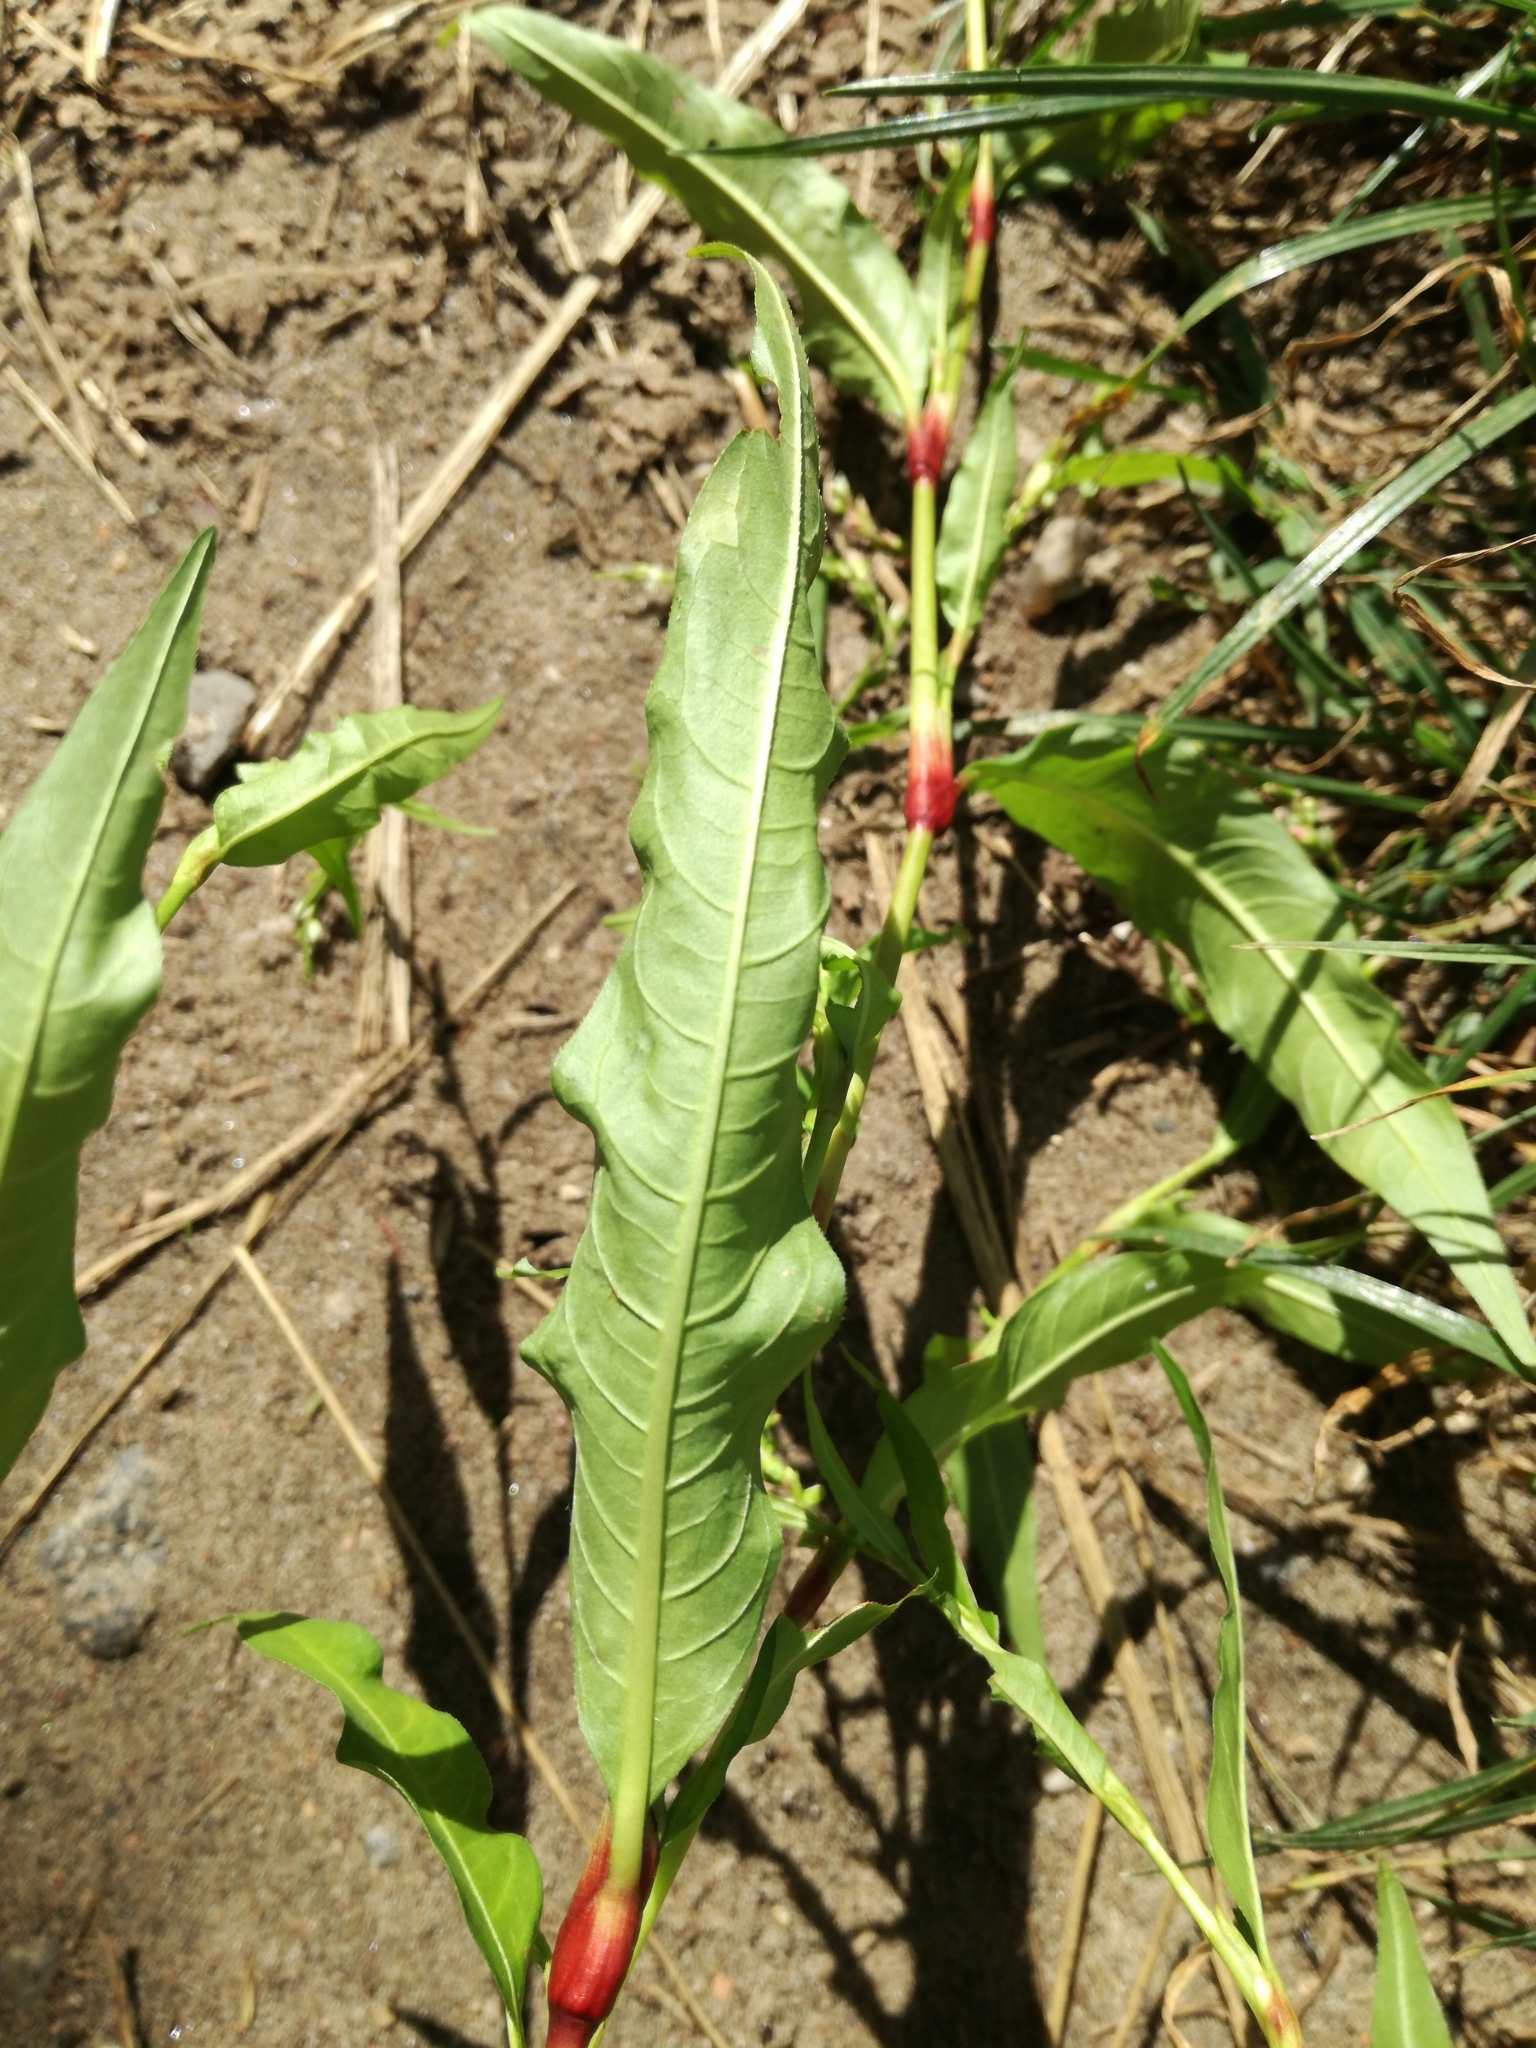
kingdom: Plantae
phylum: Tracheophyta
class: Magnoliopsida
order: Caryophyllales
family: Polygonaceae
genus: Persicaria
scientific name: Persicaria hydropiper
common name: Water-pepper
